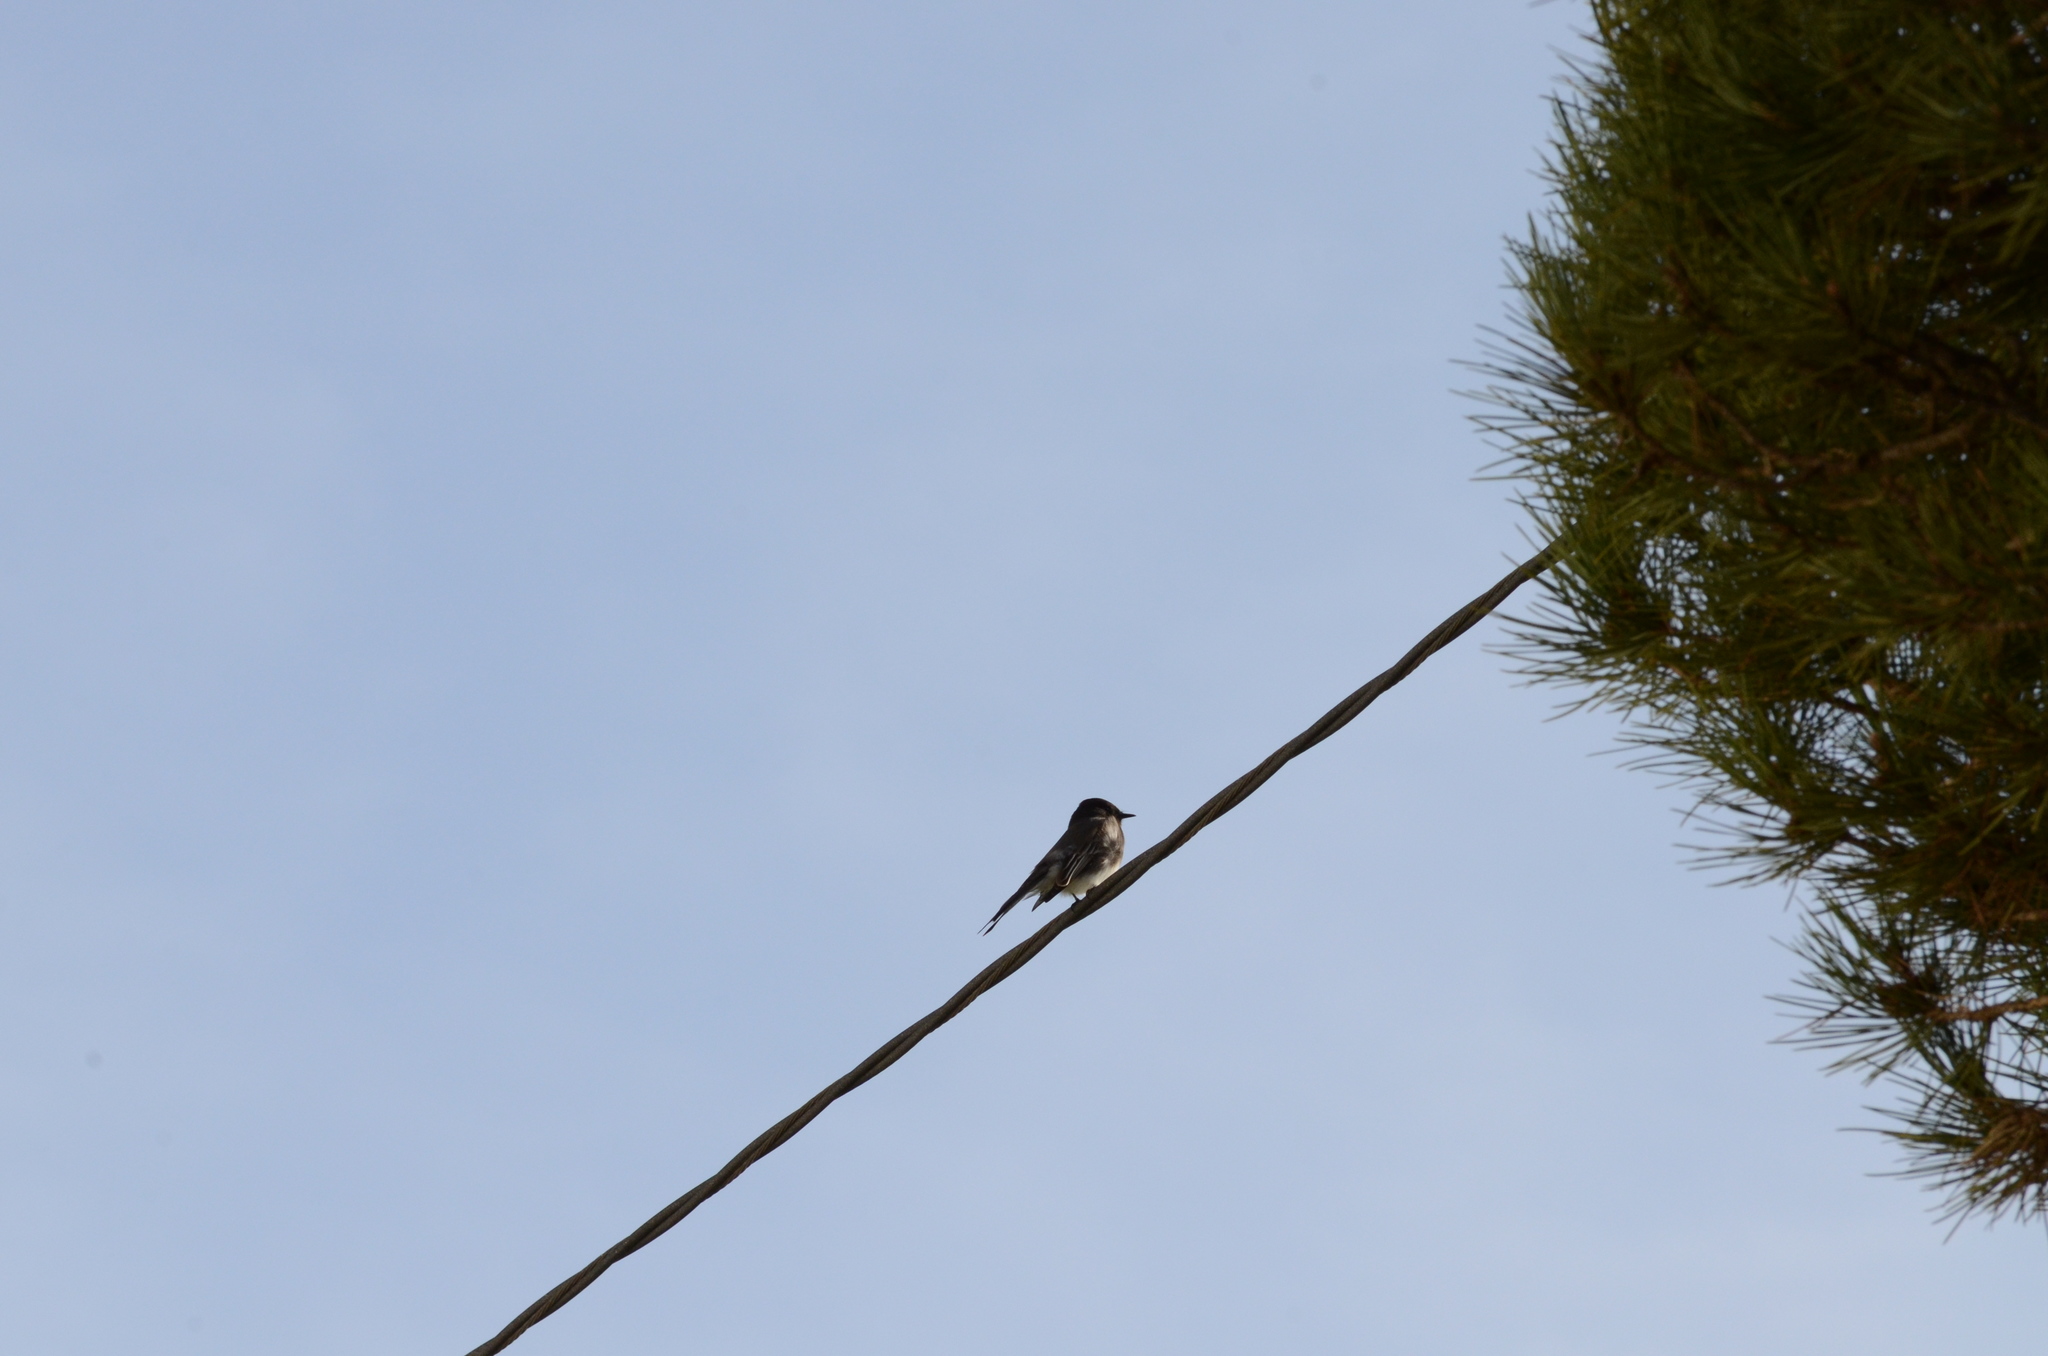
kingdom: Animalia
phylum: Chordata
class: Aves
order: Passeriformes
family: Tyrannidae
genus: Sayornis
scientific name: Sayornis nigricans
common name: Black phoebe
